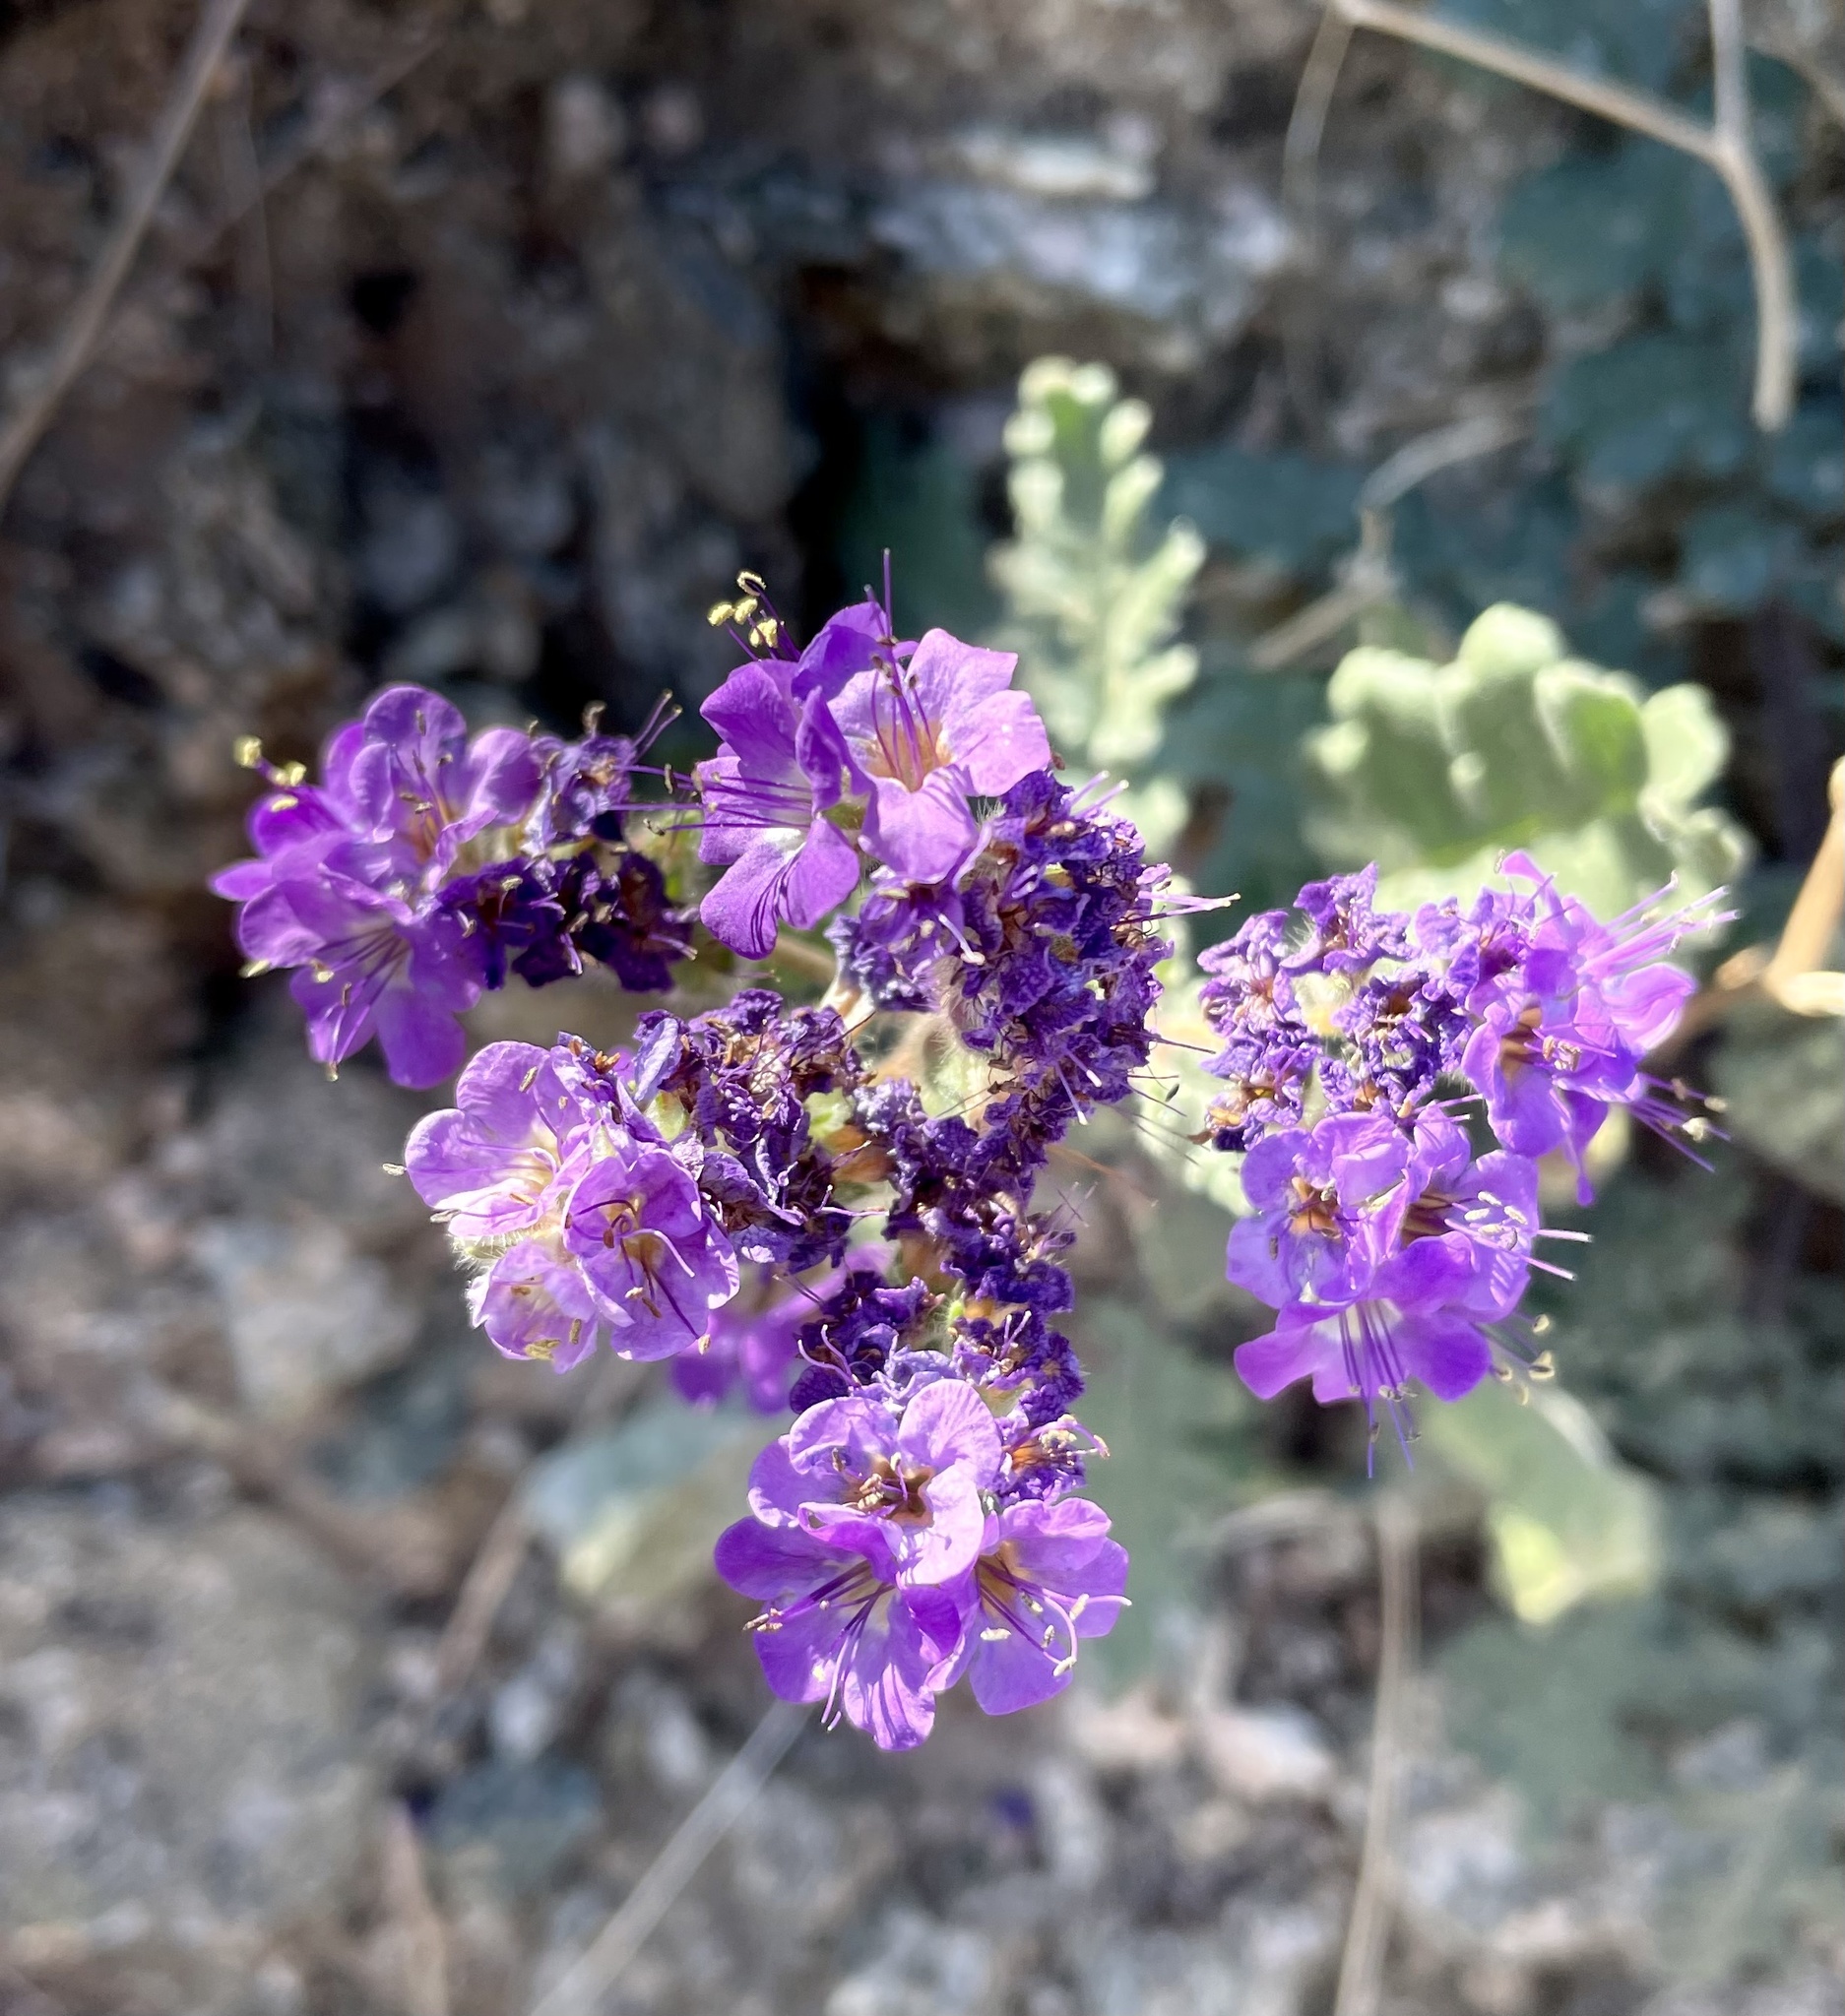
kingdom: Plantae
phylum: Tracheophyta
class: Magnoliopsida
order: Boraginales
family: Hydrophyllaceae
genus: Phacelia
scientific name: Phacelia crenulata
